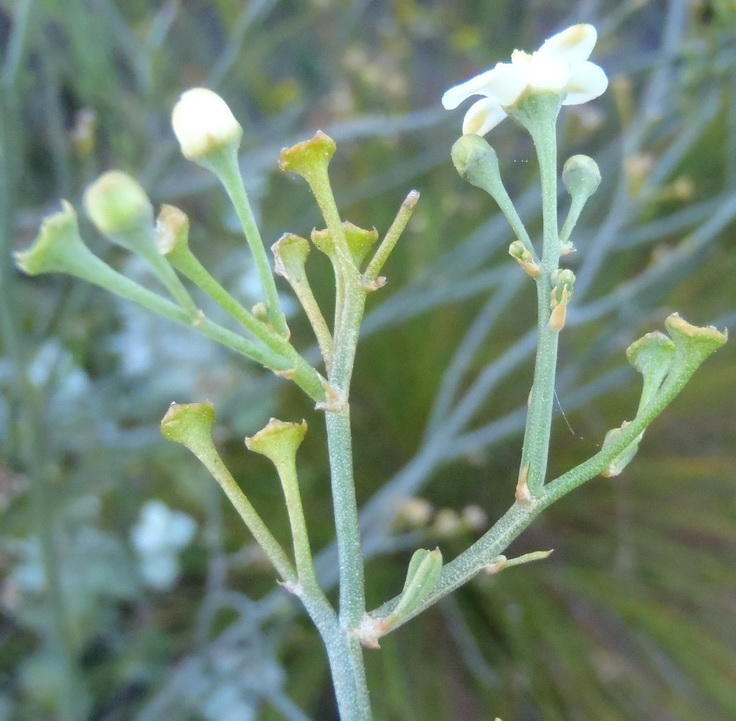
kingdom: Plantae
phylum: Tracheophyta
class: Magnoliopsida
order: Solanales
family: Montiniaceae
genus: Montinia
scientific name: Montinia caryophyllacea
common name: Wild clove-bush
